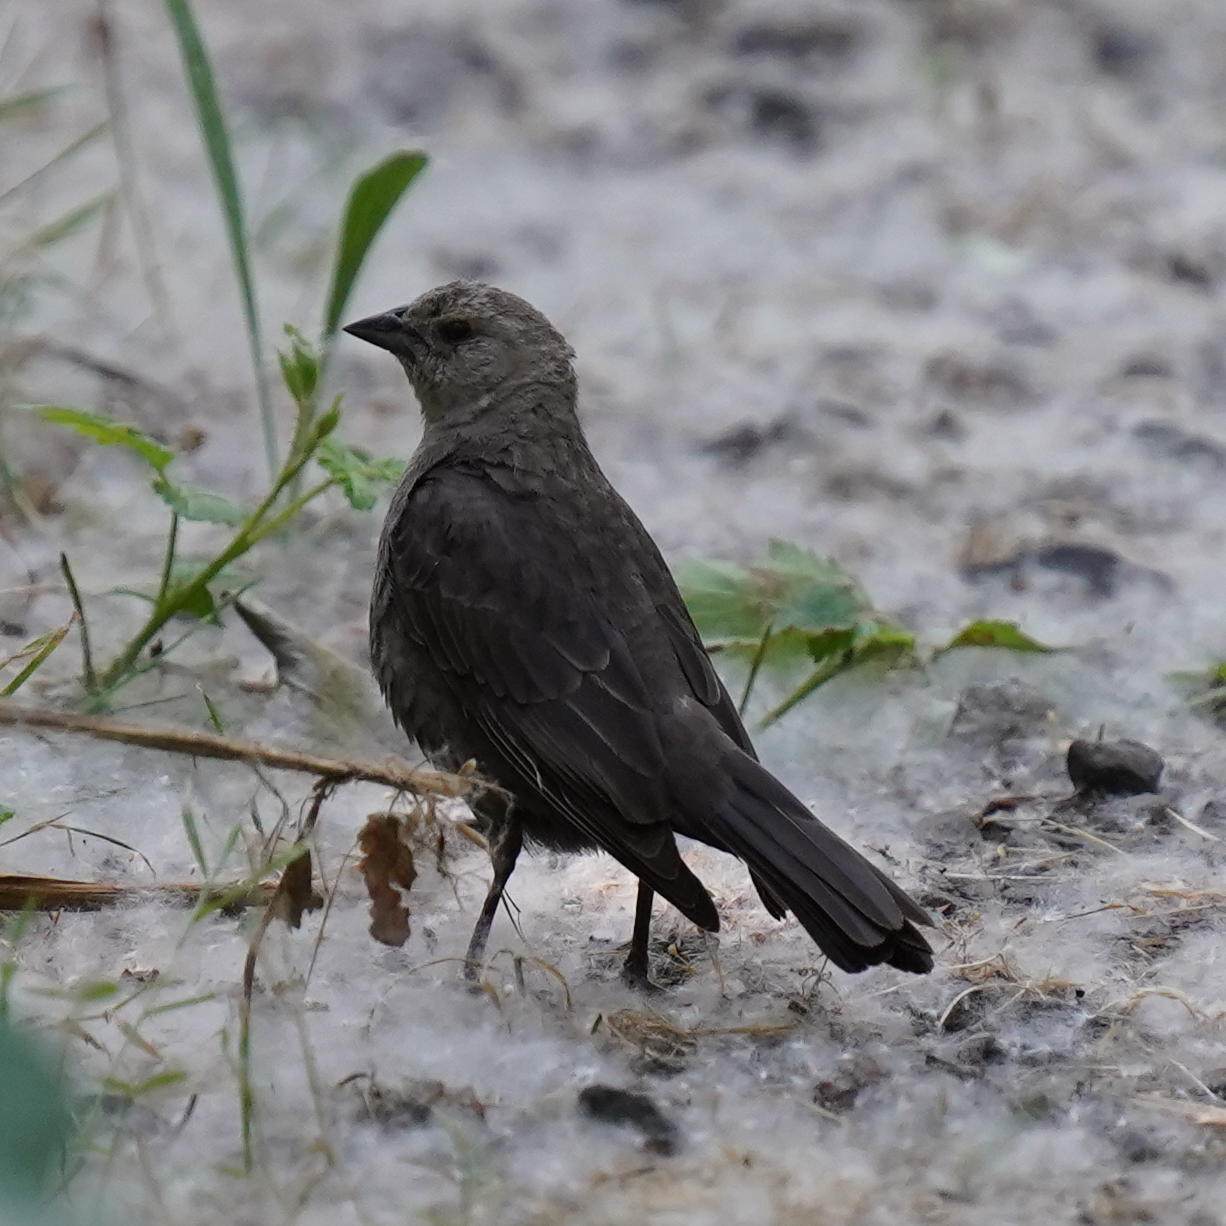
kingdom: Animalia
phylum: Chordata
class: Aves
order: Passeriformes
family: Icteridae
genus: Molothrus
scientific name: Molothrus ater
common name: Brown-headed cowbird
